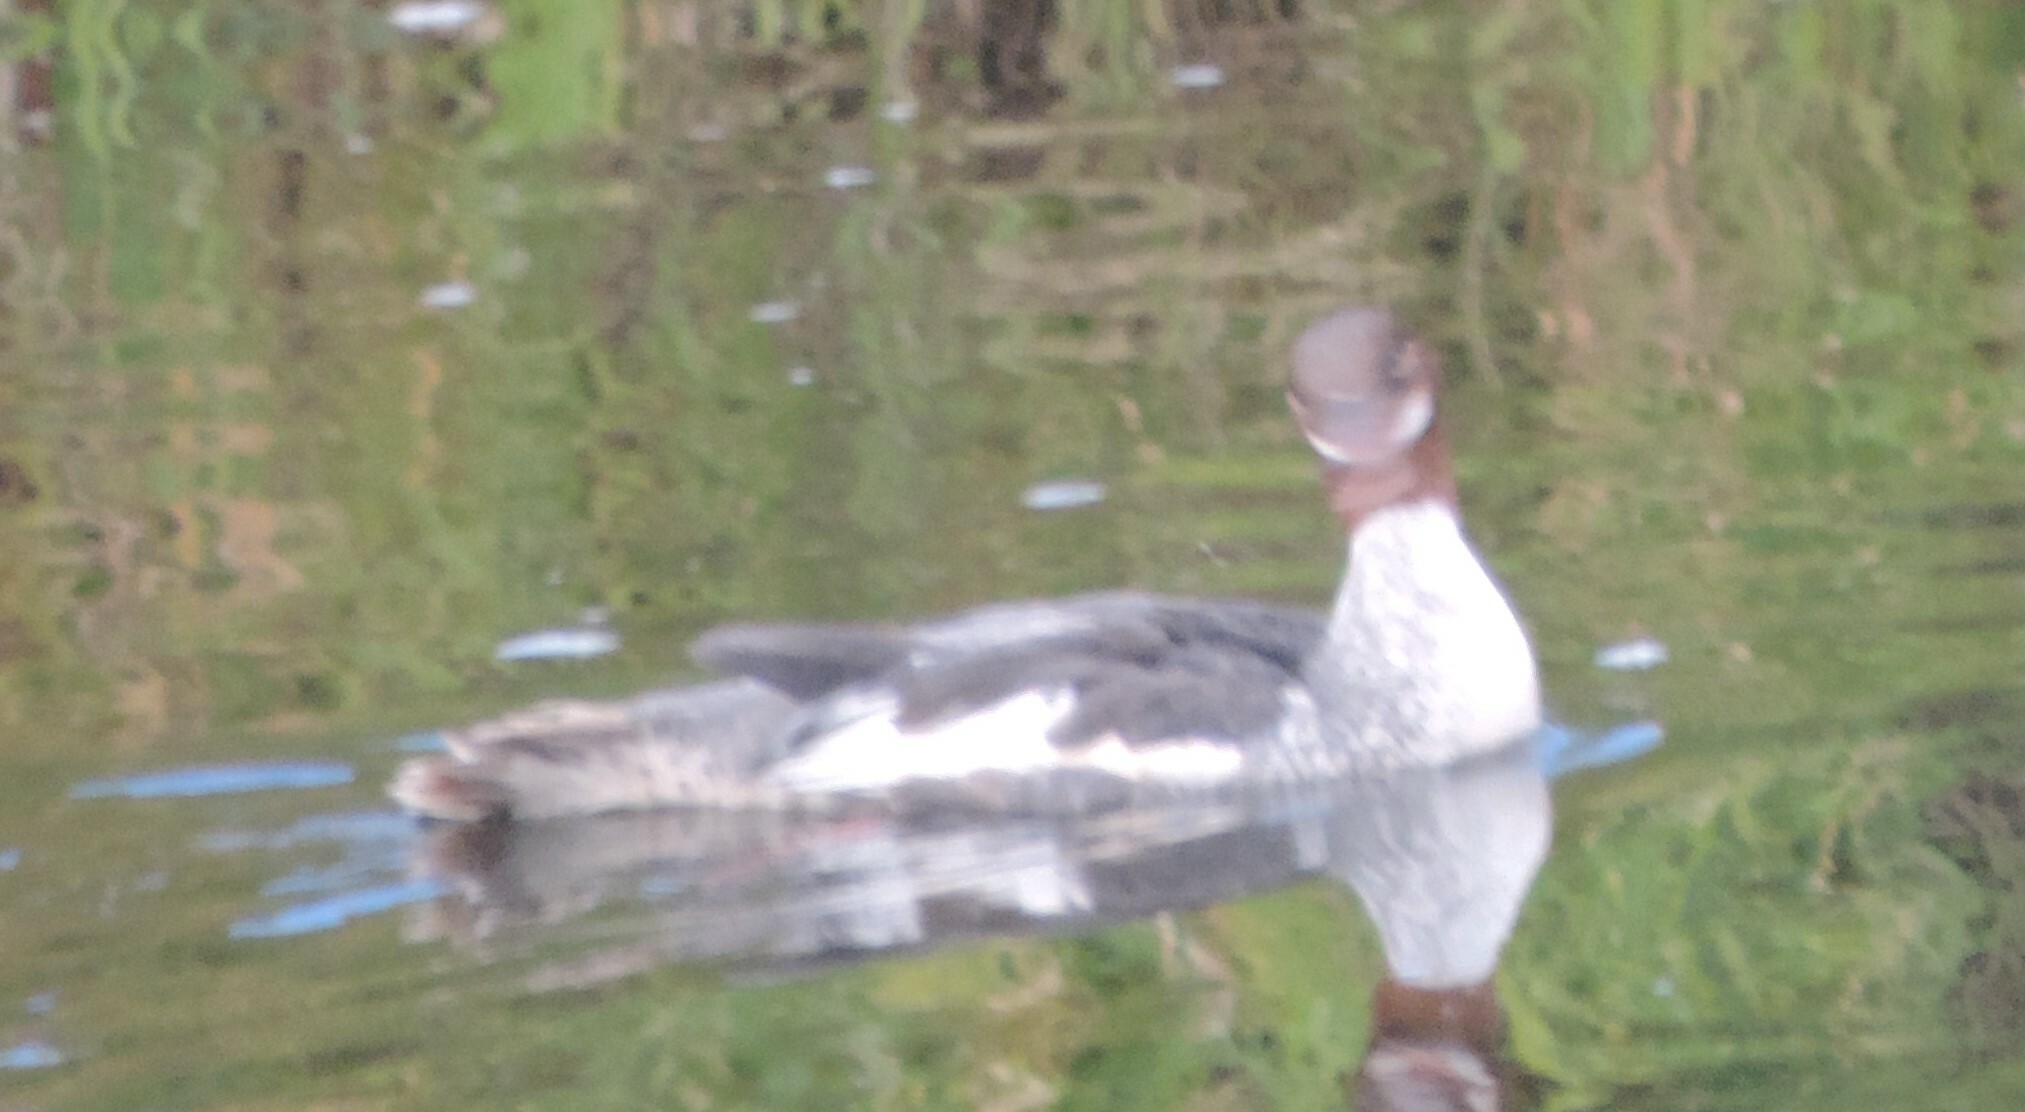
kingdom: Animalia
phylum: Chordata
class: Aves
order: Anseriformes
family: Anatidae
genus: Mergus
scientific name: Mergus merganser
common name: Common merganser
